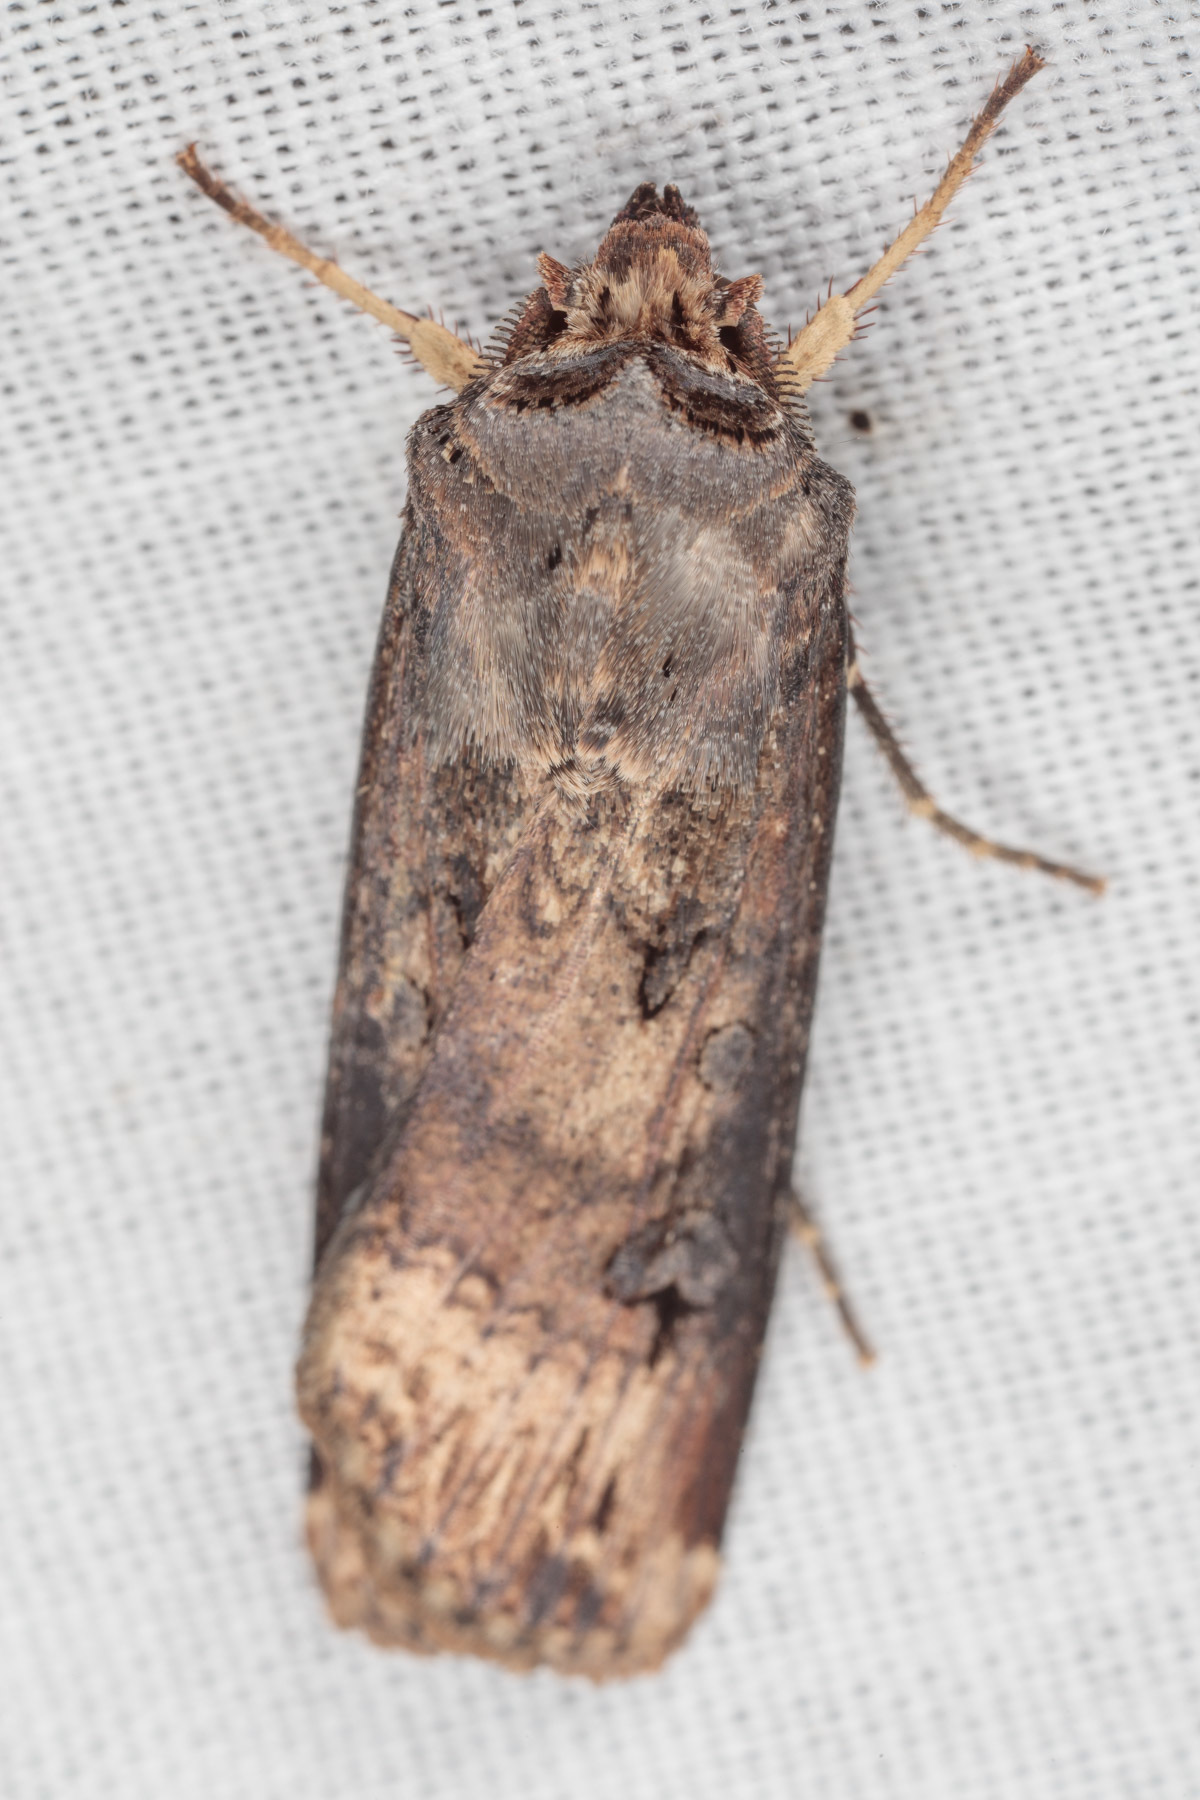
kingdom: Animalia
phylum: Arthropoda
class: Insecta
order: Lepidoptera
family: Noctuidae
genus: Agrotis
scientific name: Agrotis ipsilon
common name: Dark sword-grass
